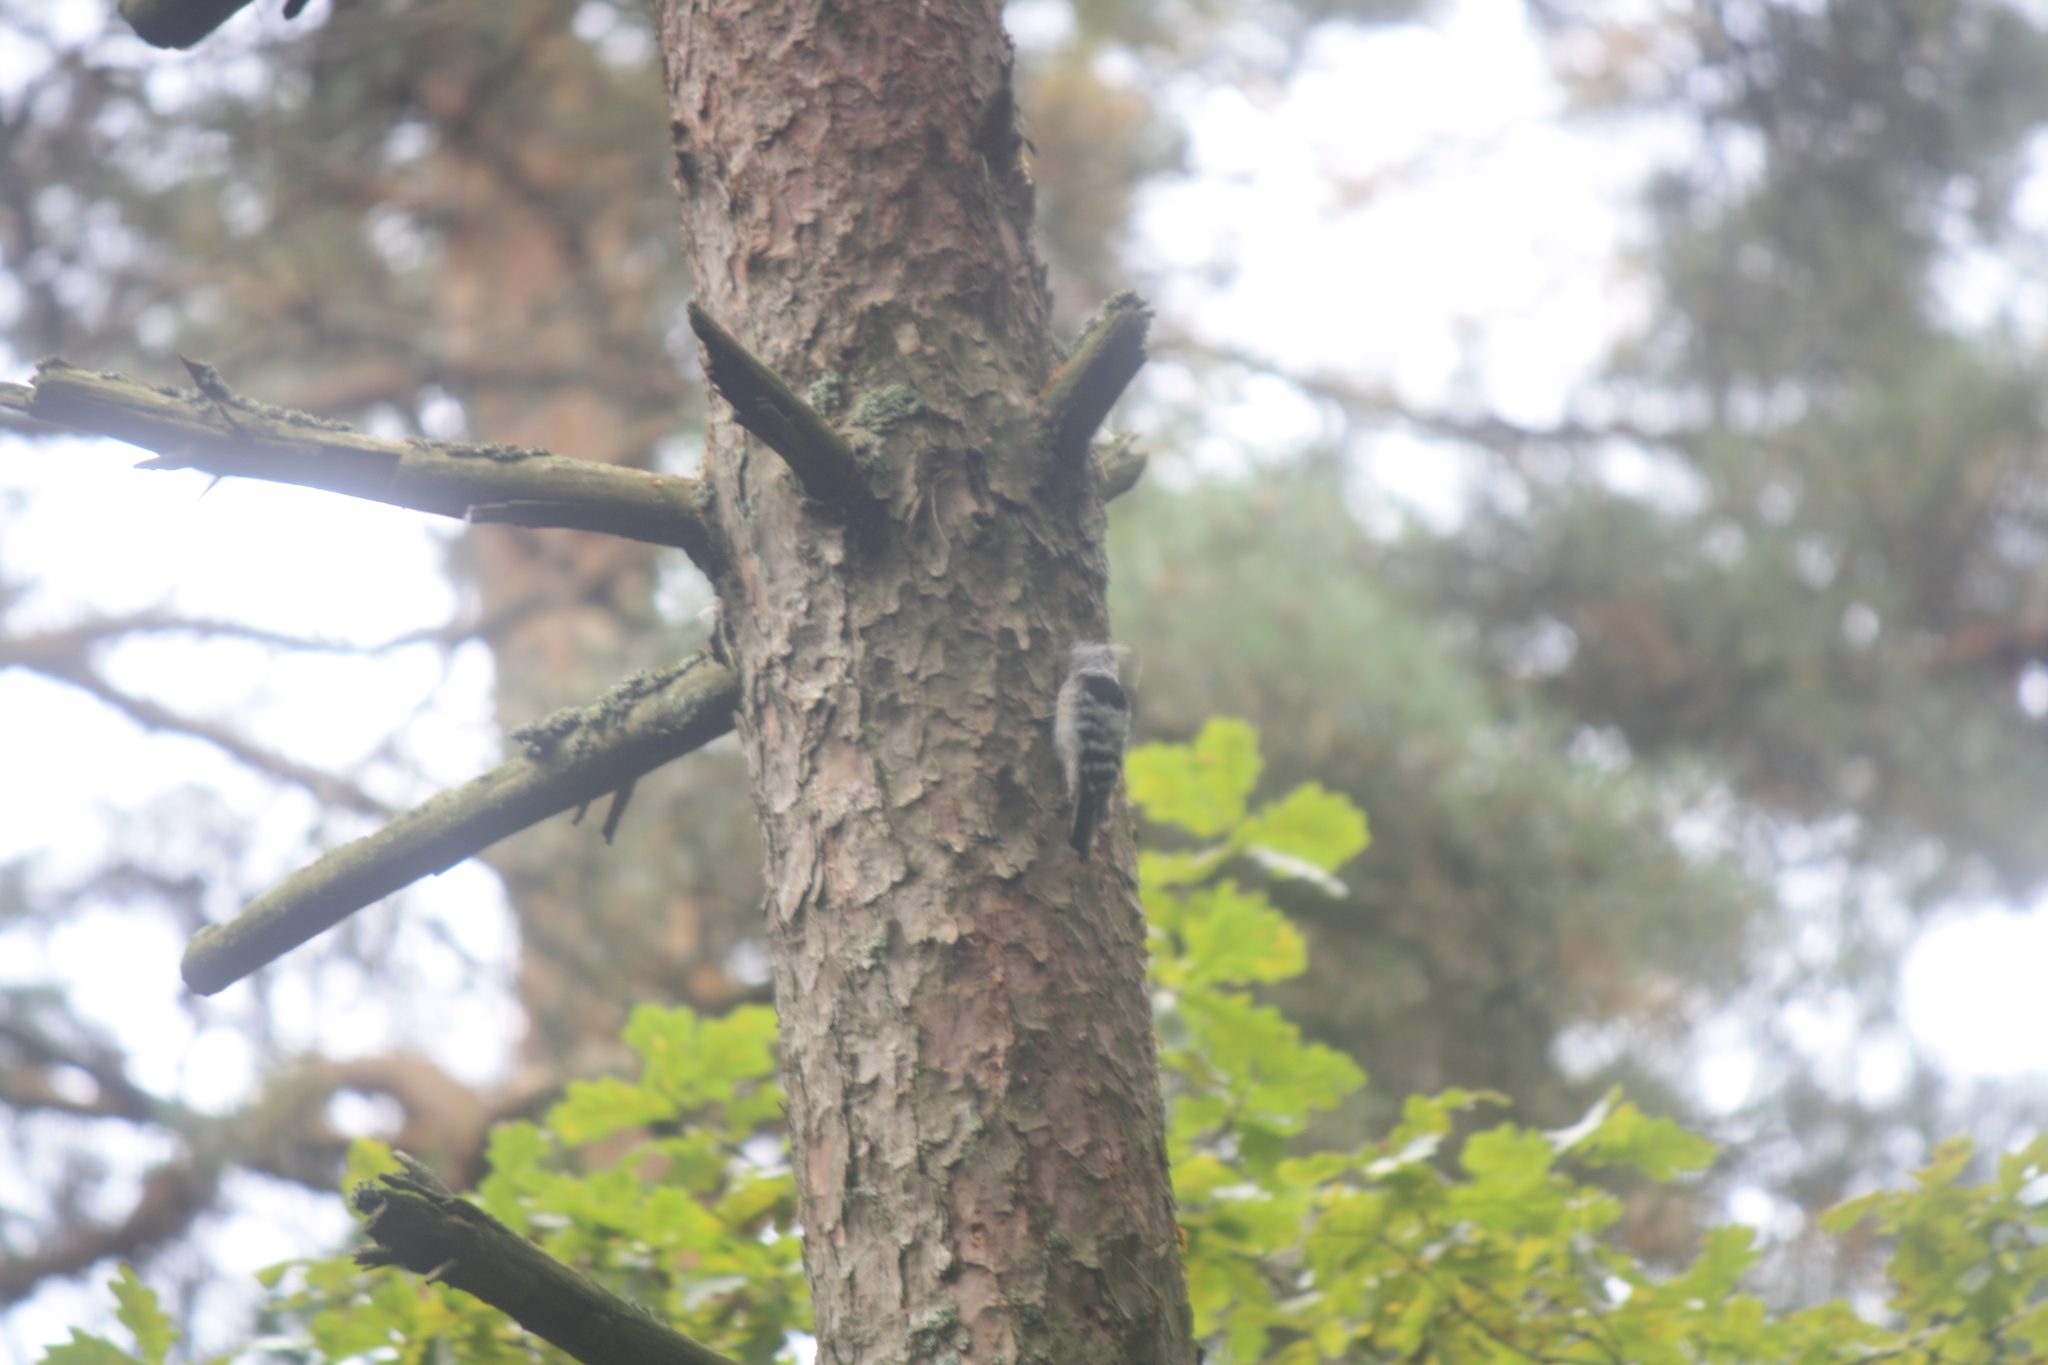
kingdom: Animalia
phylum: Chordata
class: Aves
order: Piciformes
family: Picidae
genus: Dryobates
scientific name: Dryobates minor
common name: Lesser spotted woodpecker
